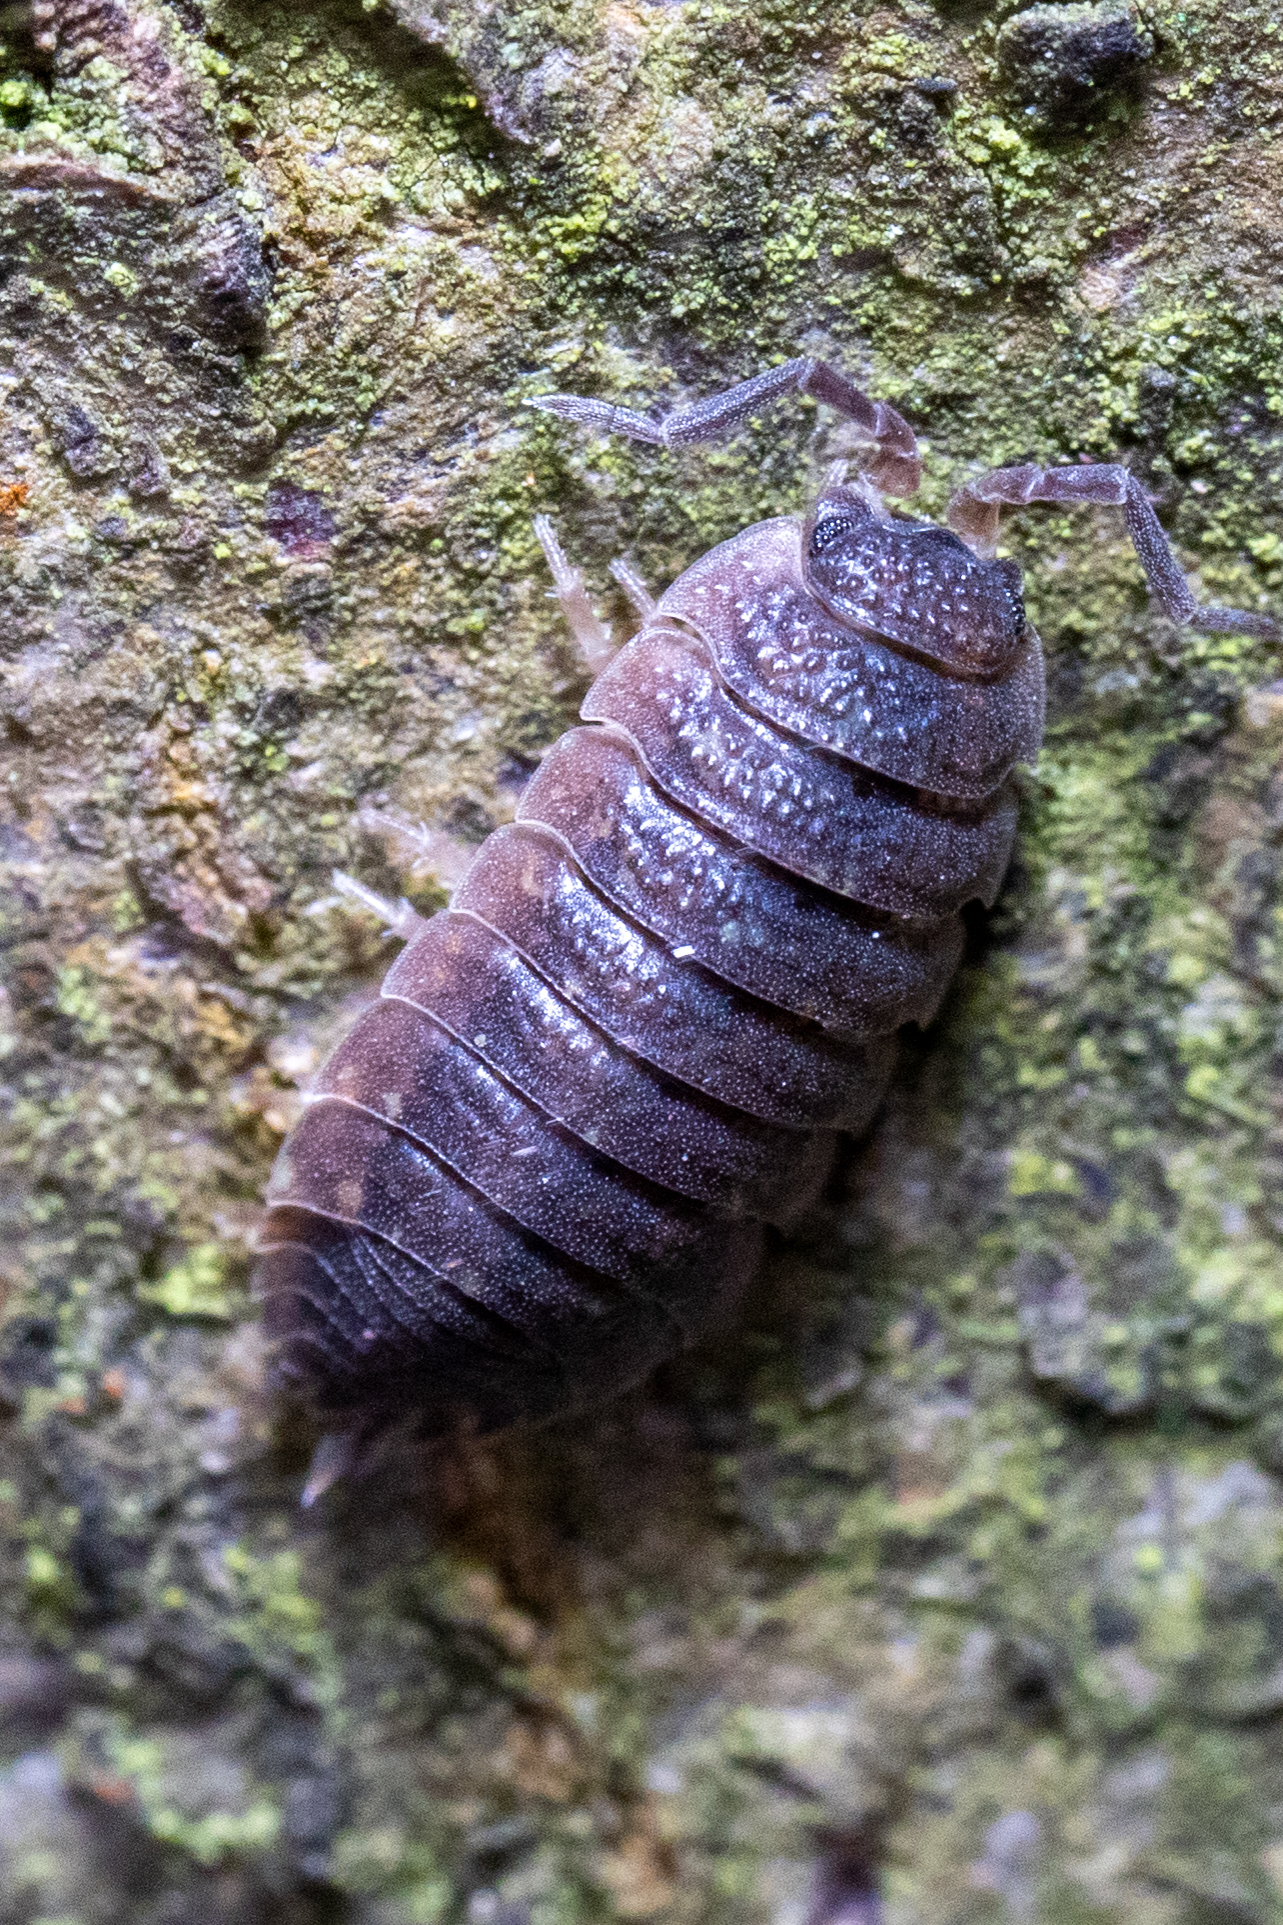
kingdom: Animalia
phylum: Arthropoda
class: Malacostraca
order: Isopoda
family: Porcellionidae
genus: Porcellio
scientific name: Porcellio scaber
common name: Common rough woodlouse
